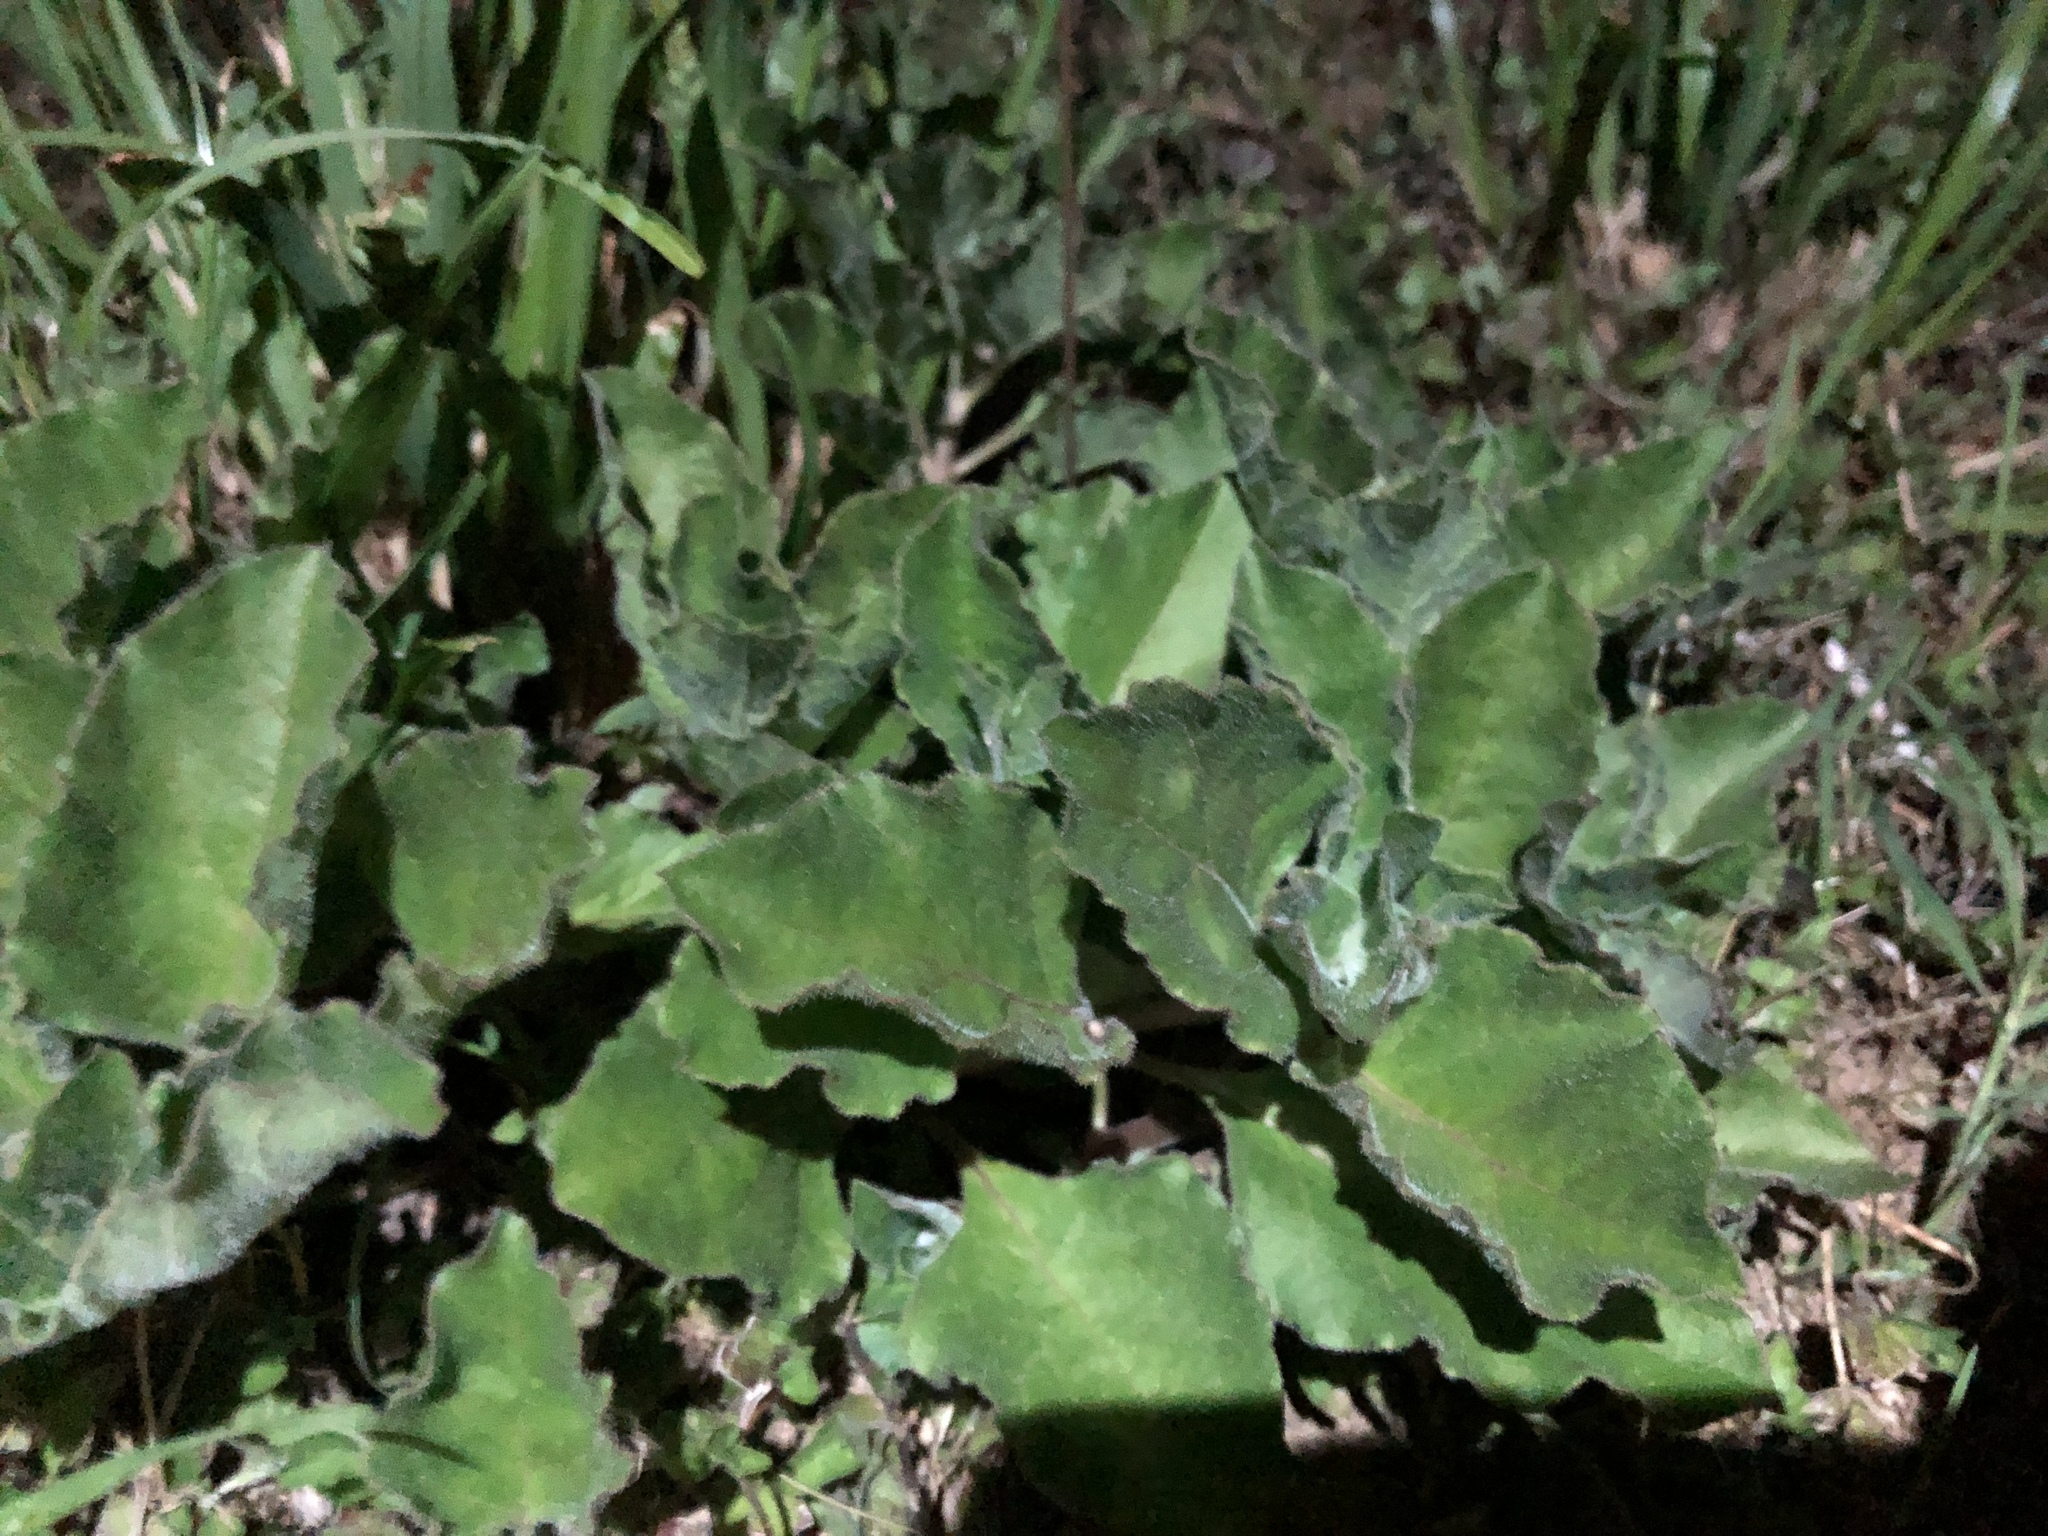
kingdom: Plantae
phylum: Tracheophyta
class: Magnoliopsida
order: Gentianales
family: Apocynaceae
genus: Asclepias
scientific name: Asclepias oenotheroides
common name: Zizotes milkweed
